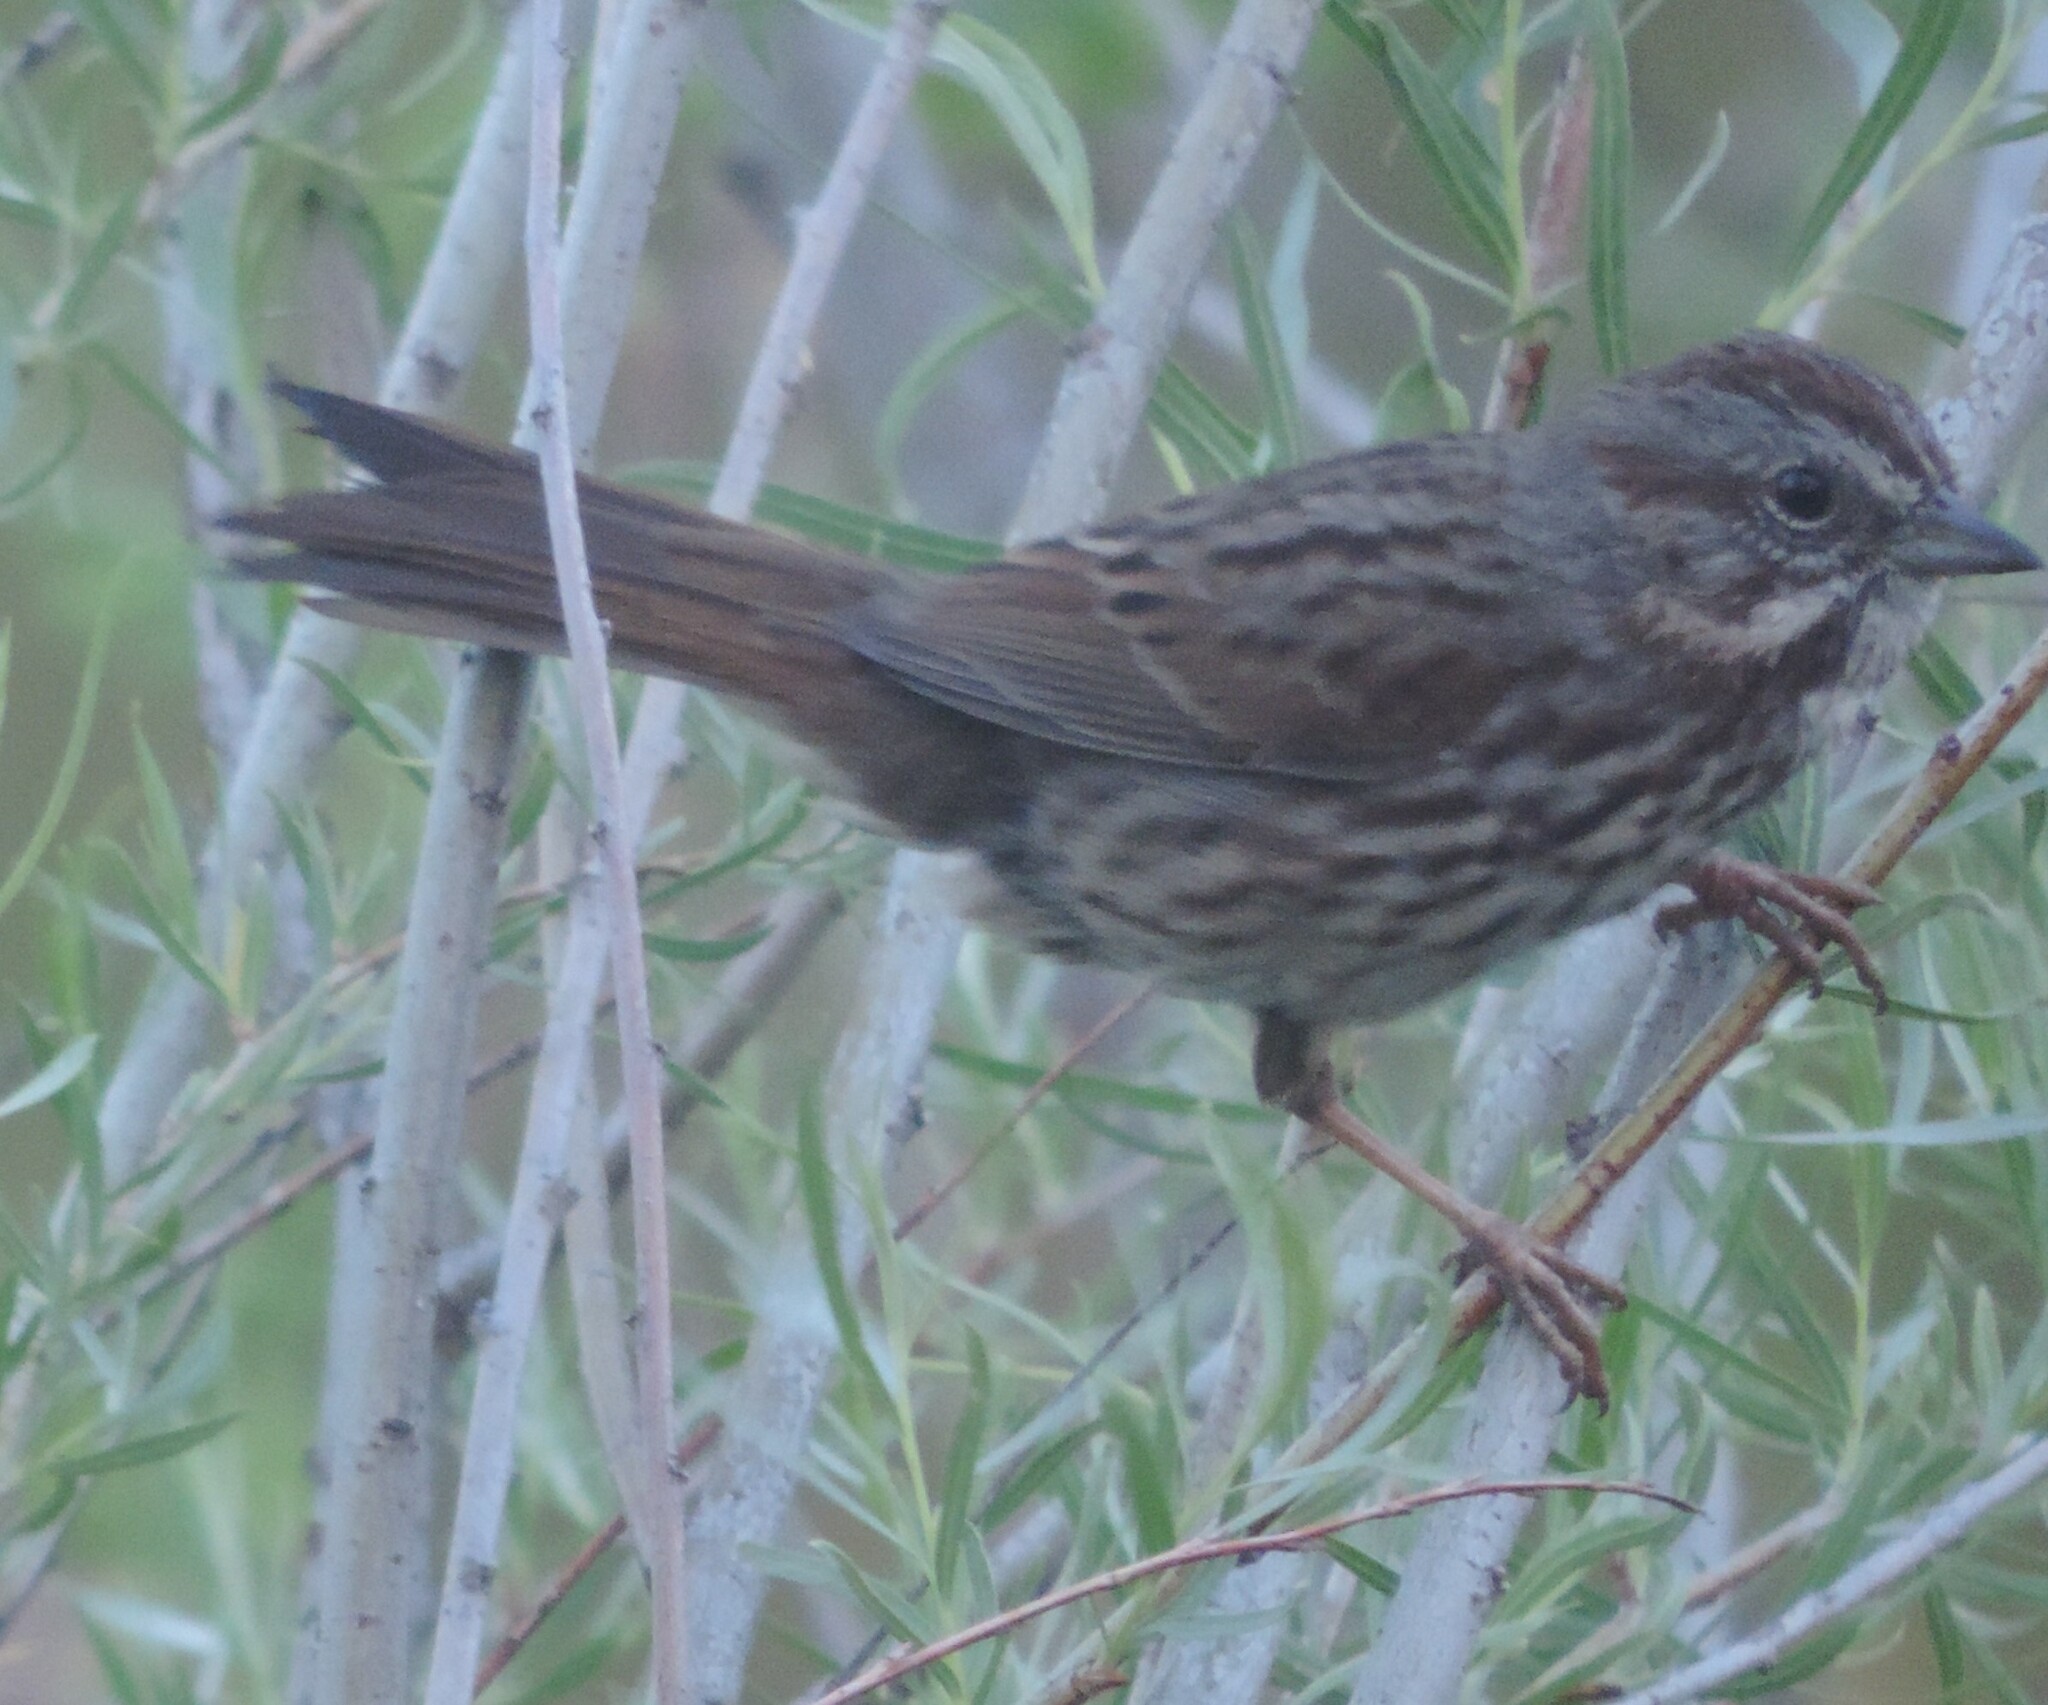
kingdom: Animalia
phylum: Chordata
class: Aves
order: Passeriformes
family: Passerellidae
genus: Melospiza
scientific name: Melospiza melodia
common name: Song sparrow
